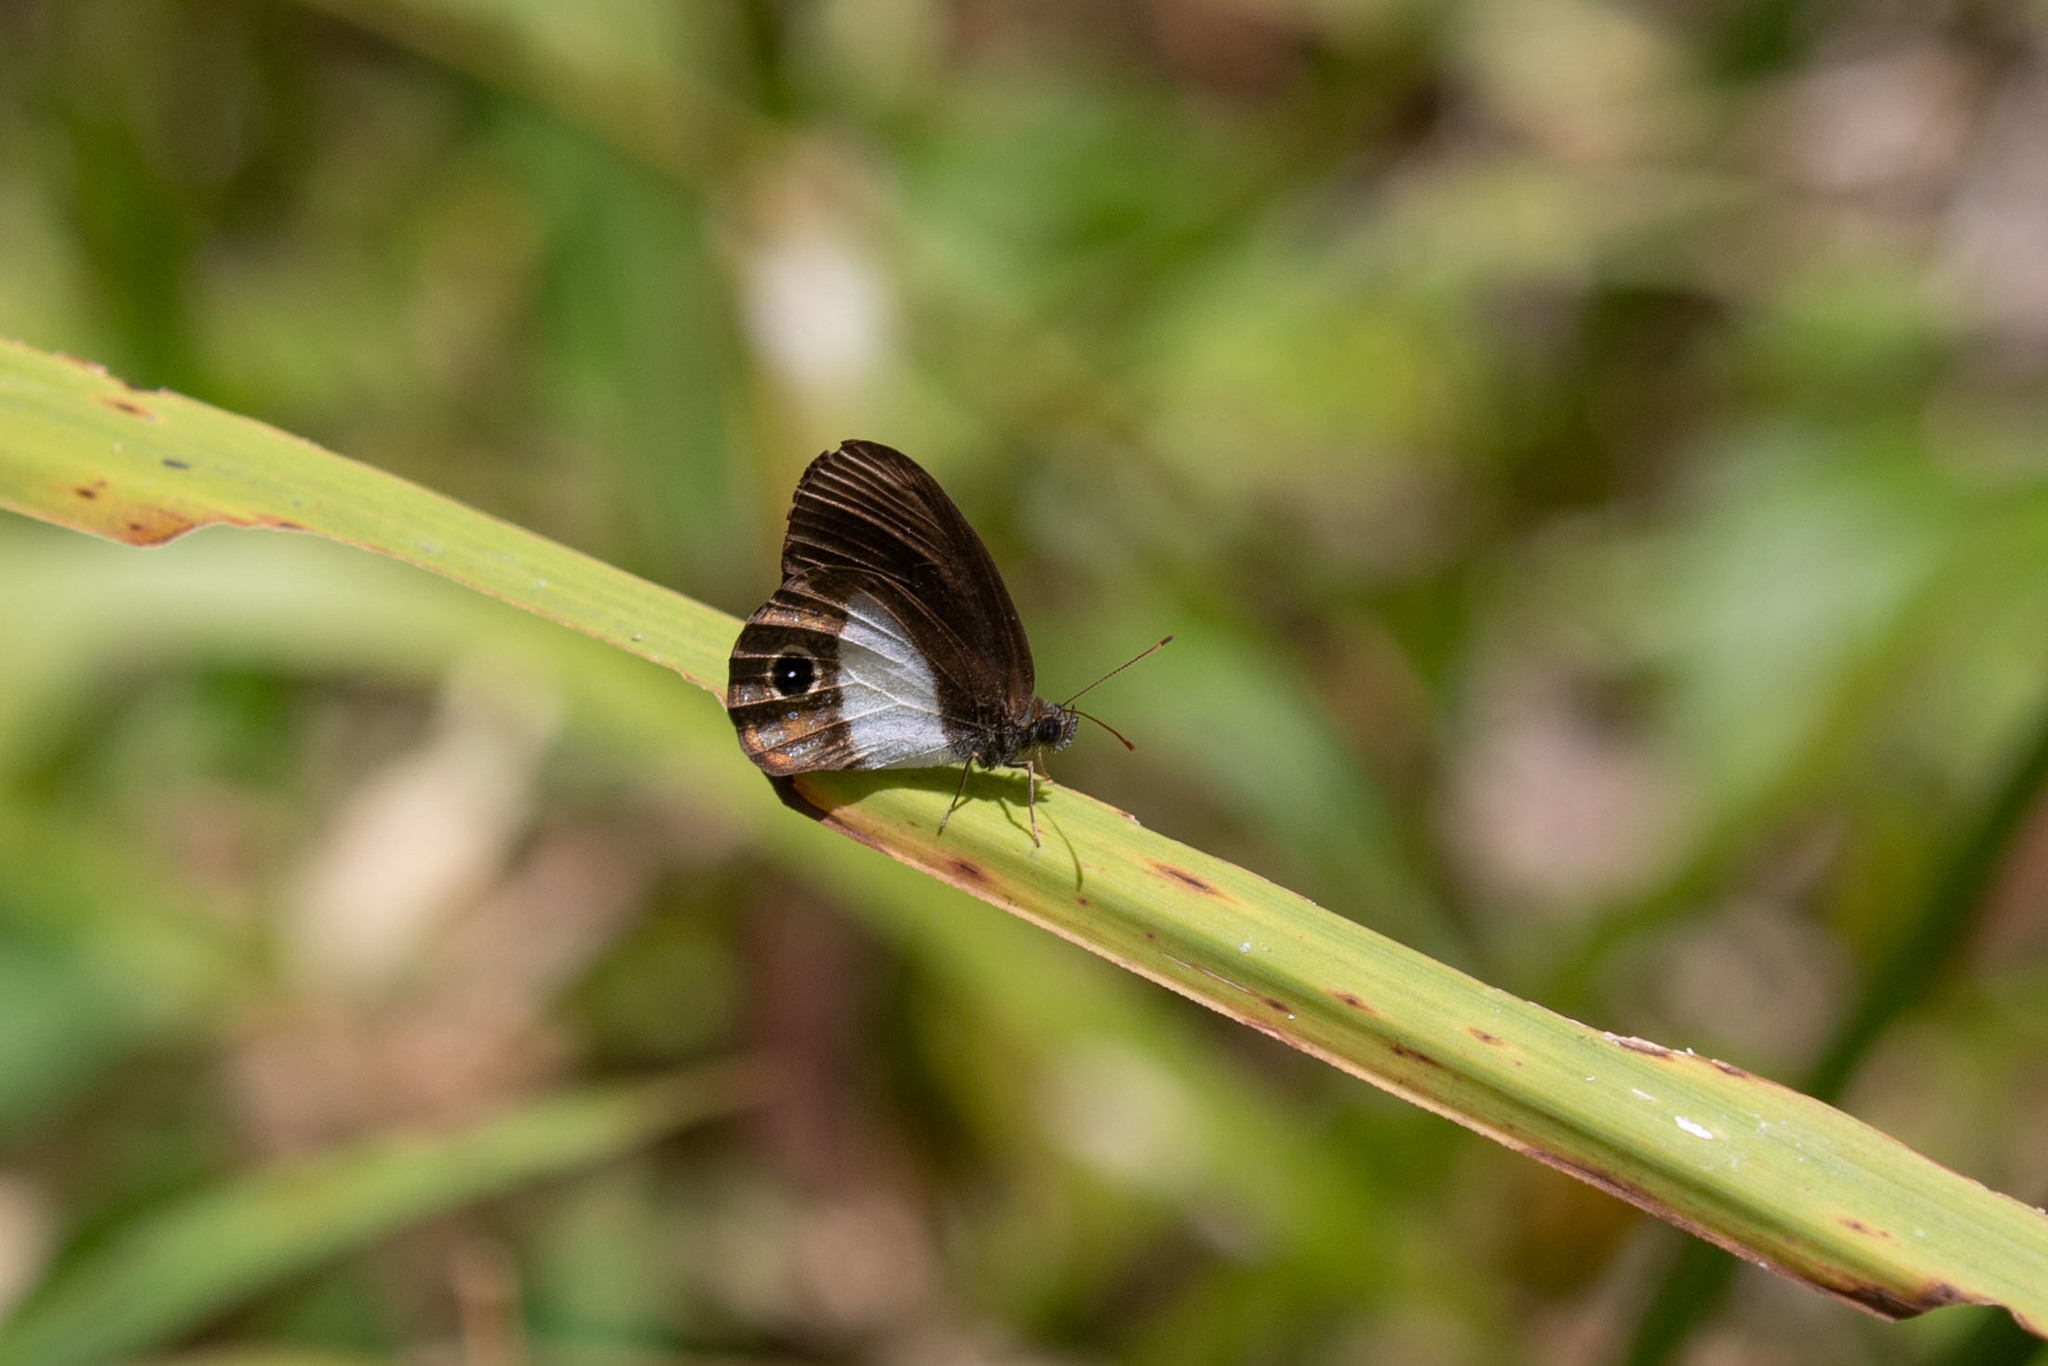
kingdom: Animalia
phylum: Arthropoda
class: Insecta
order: Lepidoptera
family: Nymphalidae
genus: Platypthima
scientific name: Platypthima
